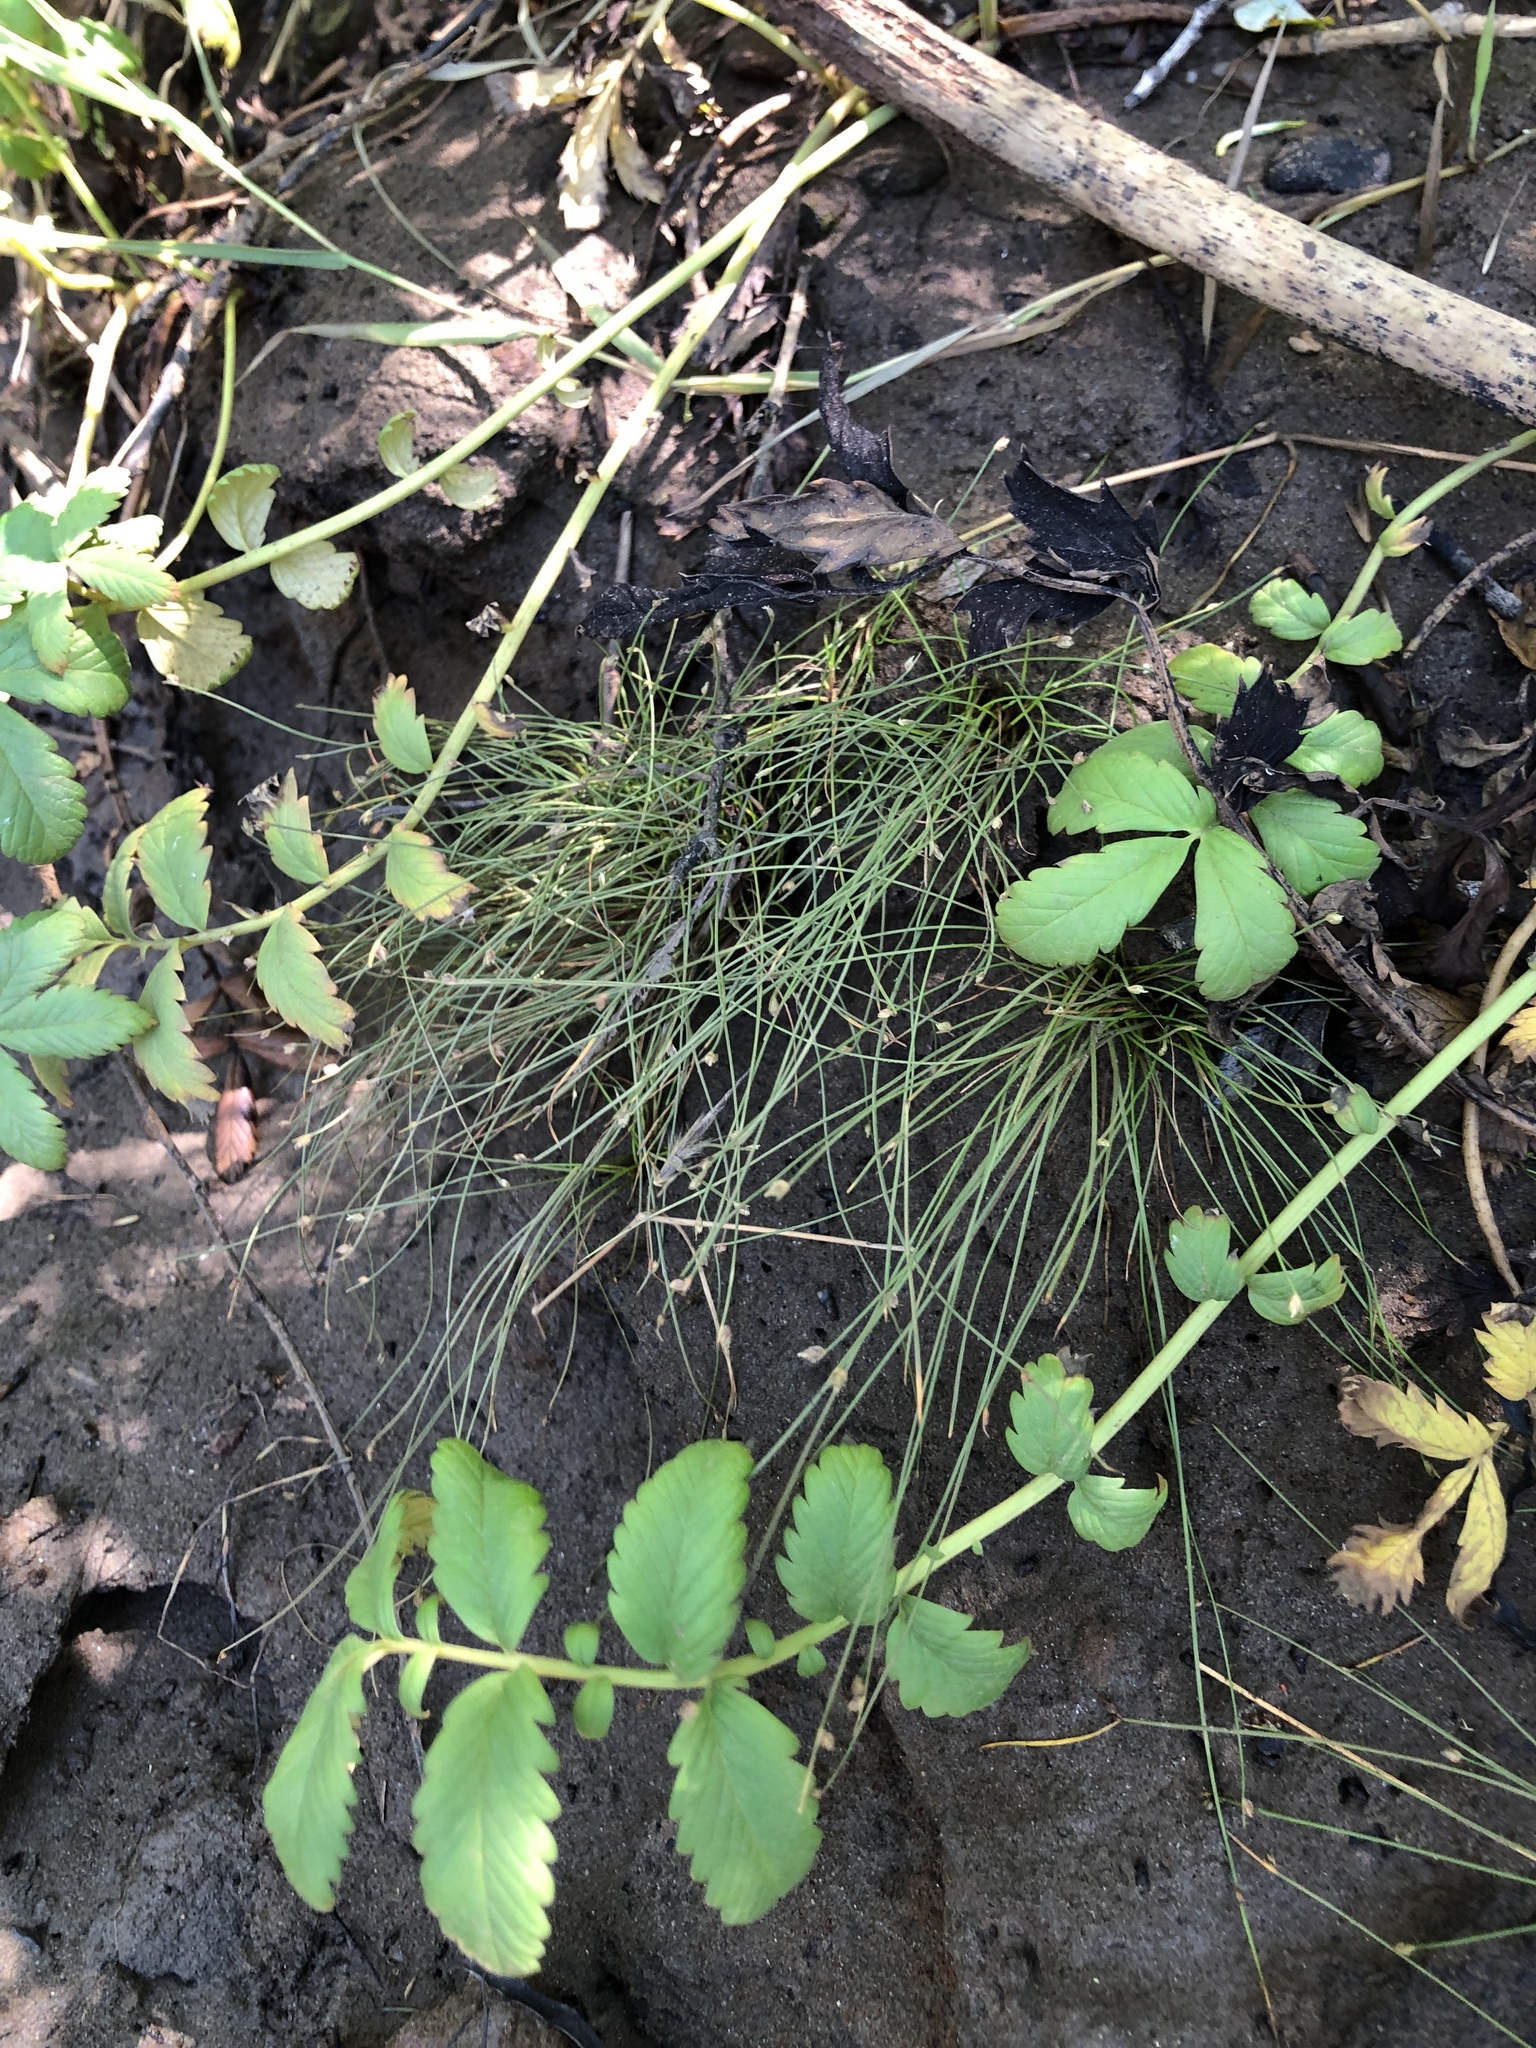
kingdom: Plantae
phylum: Tracheophyta
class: Liliopsida
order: Poales
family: Cyperaceae
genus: Isolepis
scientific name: Isolepis cernua
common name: Slender club-rush
